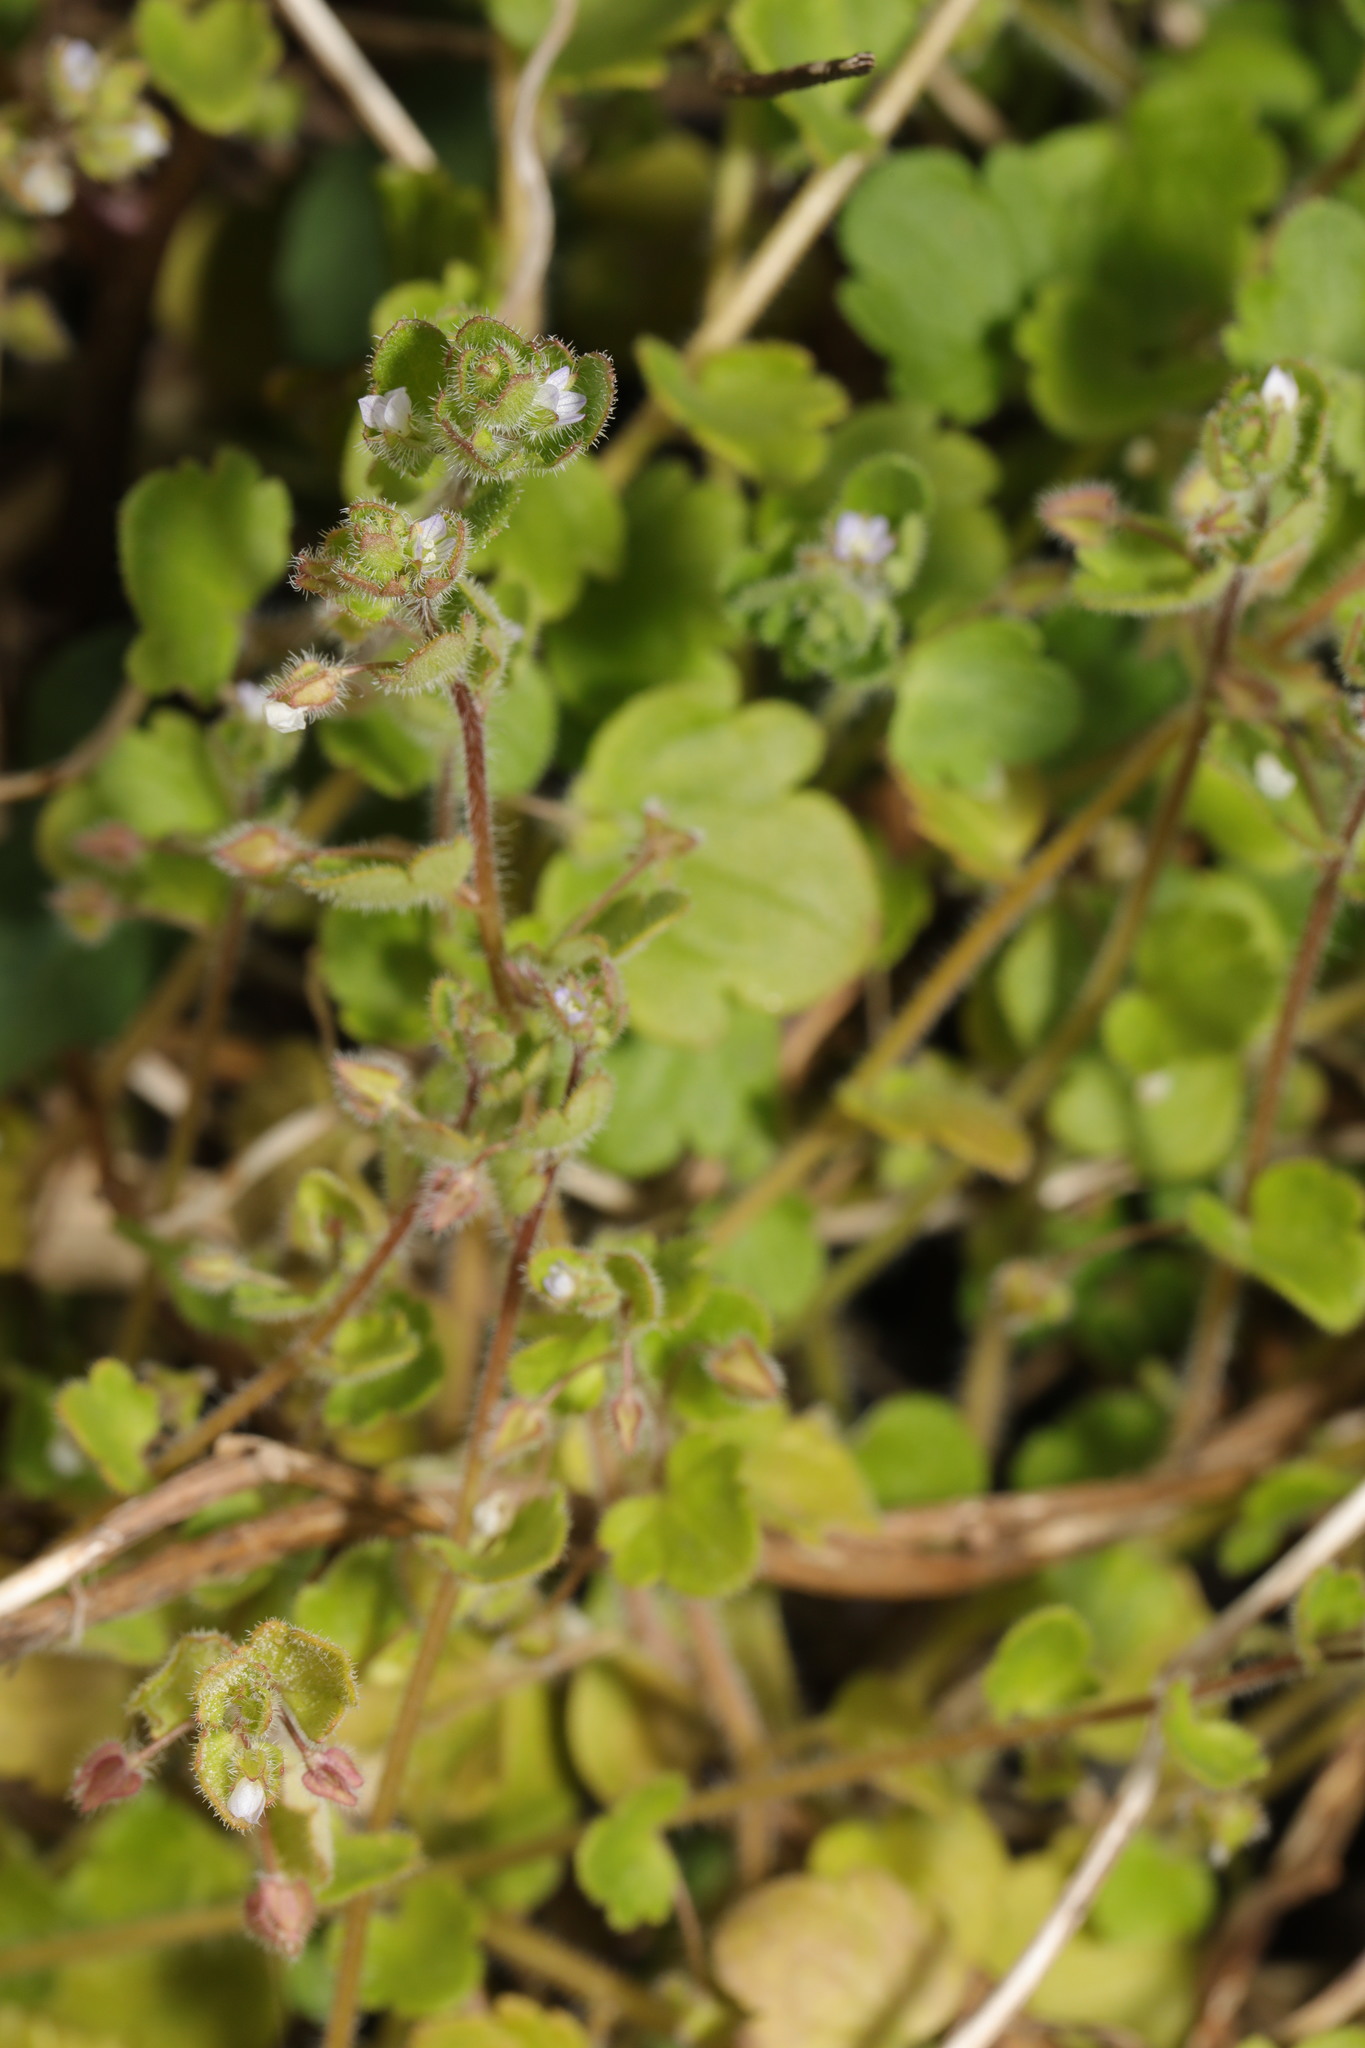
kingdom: Plantae
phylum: Tracheophyta
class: Magnoliopsida
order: Lamiales
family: Plantaginaceae
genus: Veronica
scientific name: Veronica sublobata
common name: False ivy-leaved speedwell
